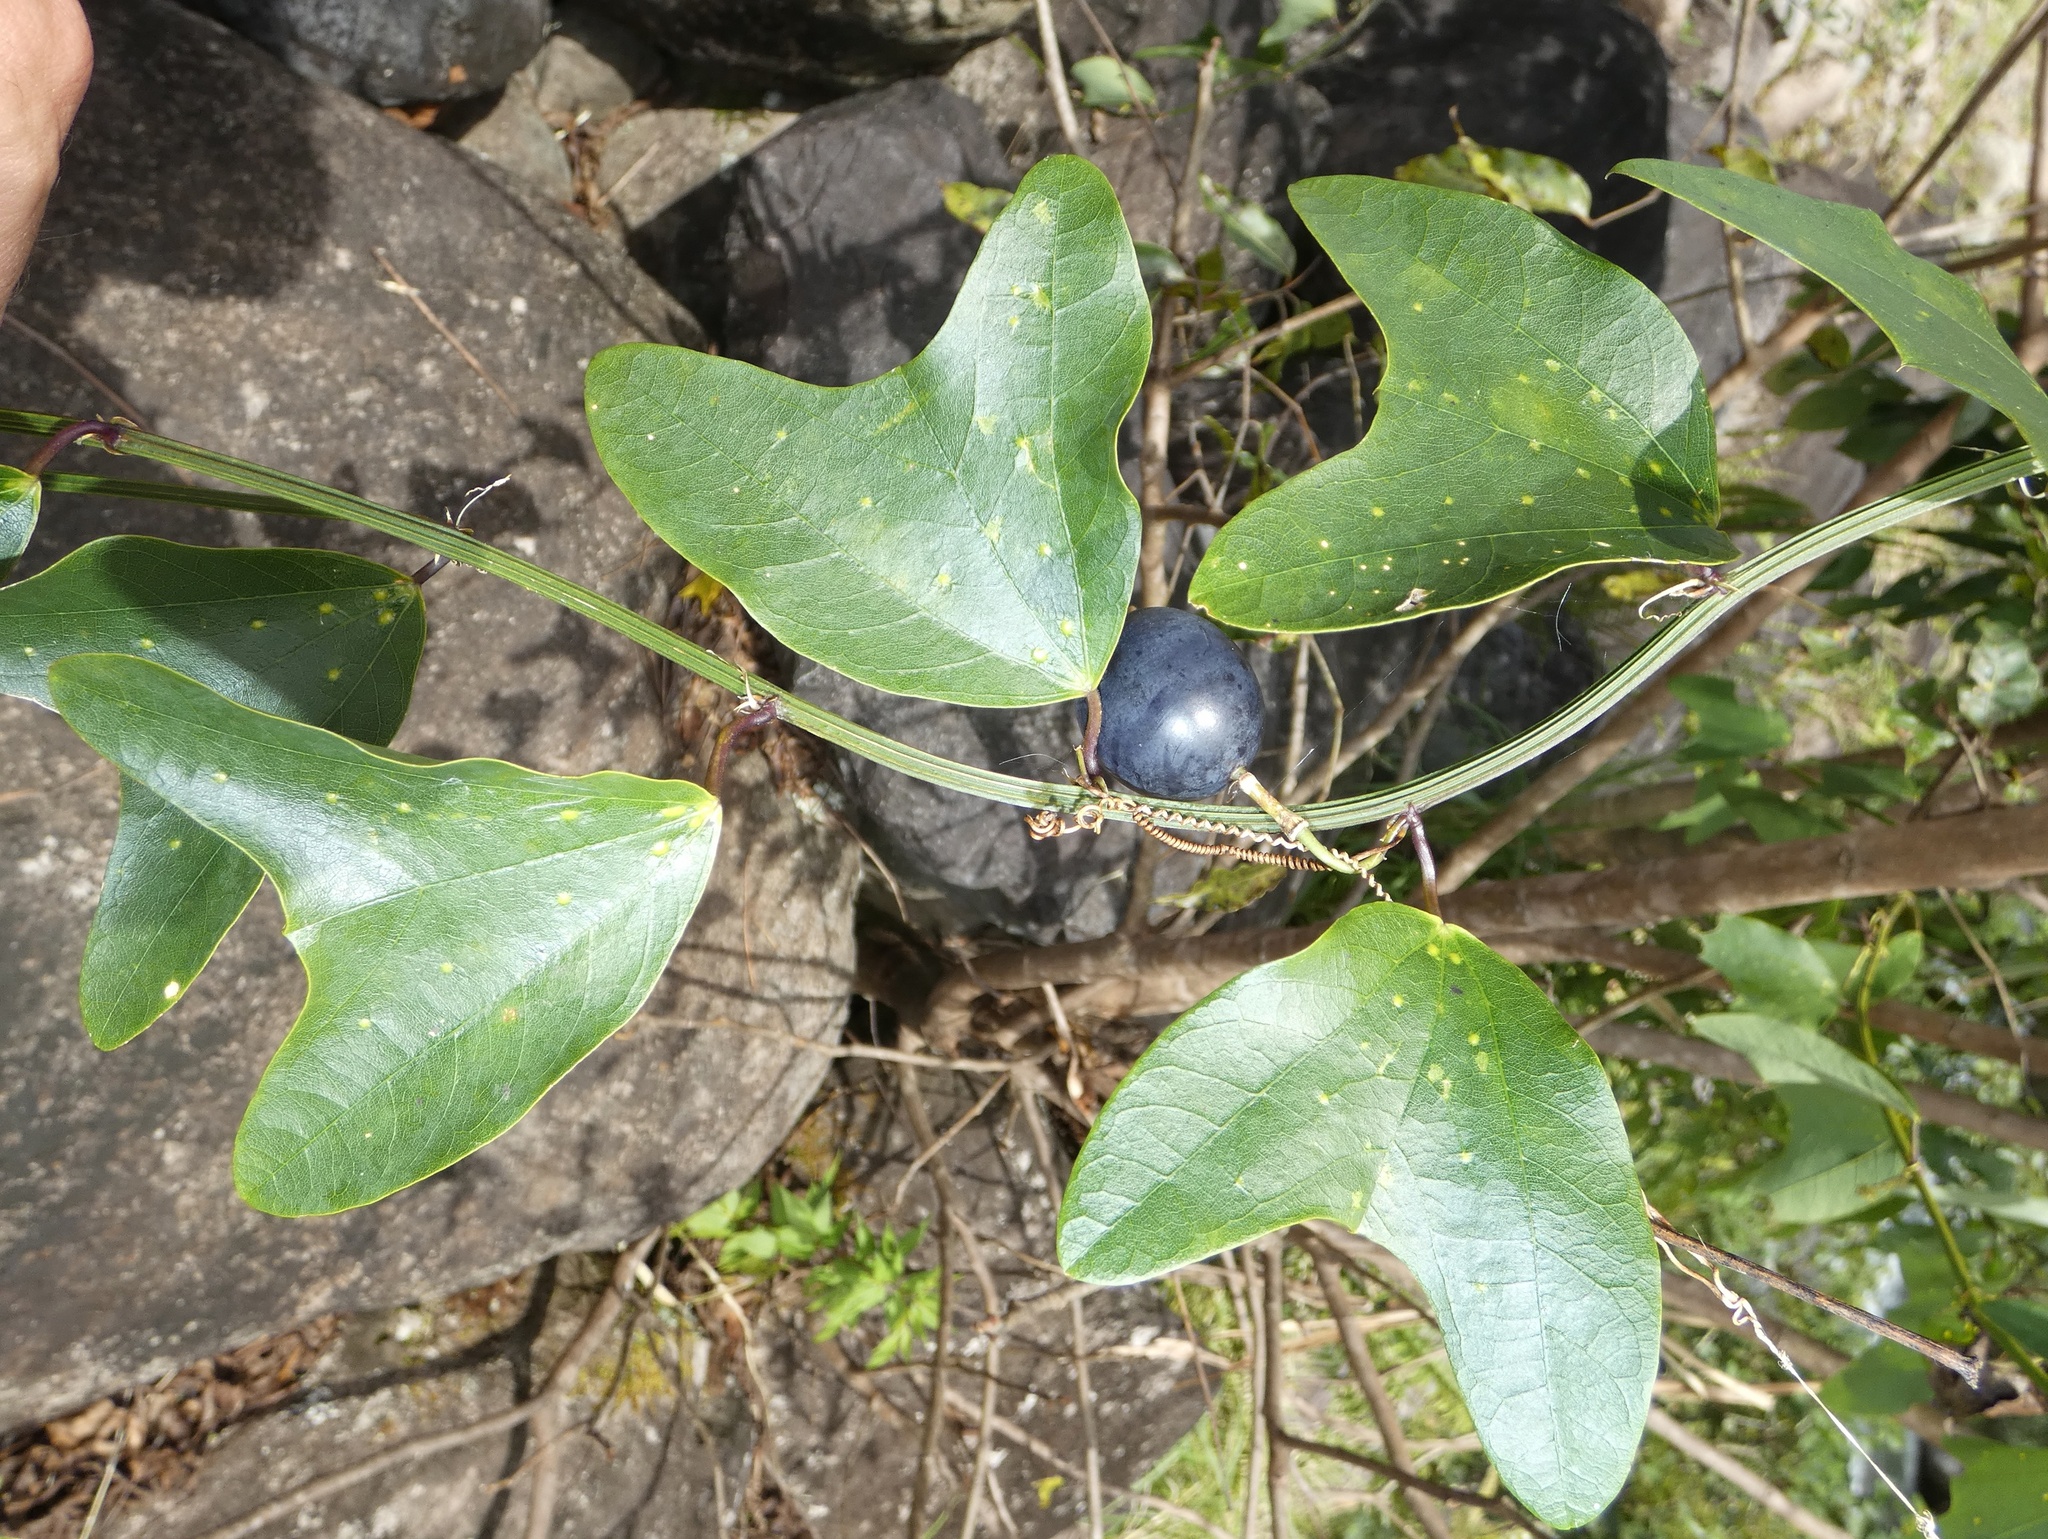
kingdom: Plantae
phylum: Tracheophyta
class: Magnoliopsida
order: Malpighiales
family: Passifloraceae
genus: Passiflora
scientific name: Passiflora biflora
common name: Twoflower passionflower
